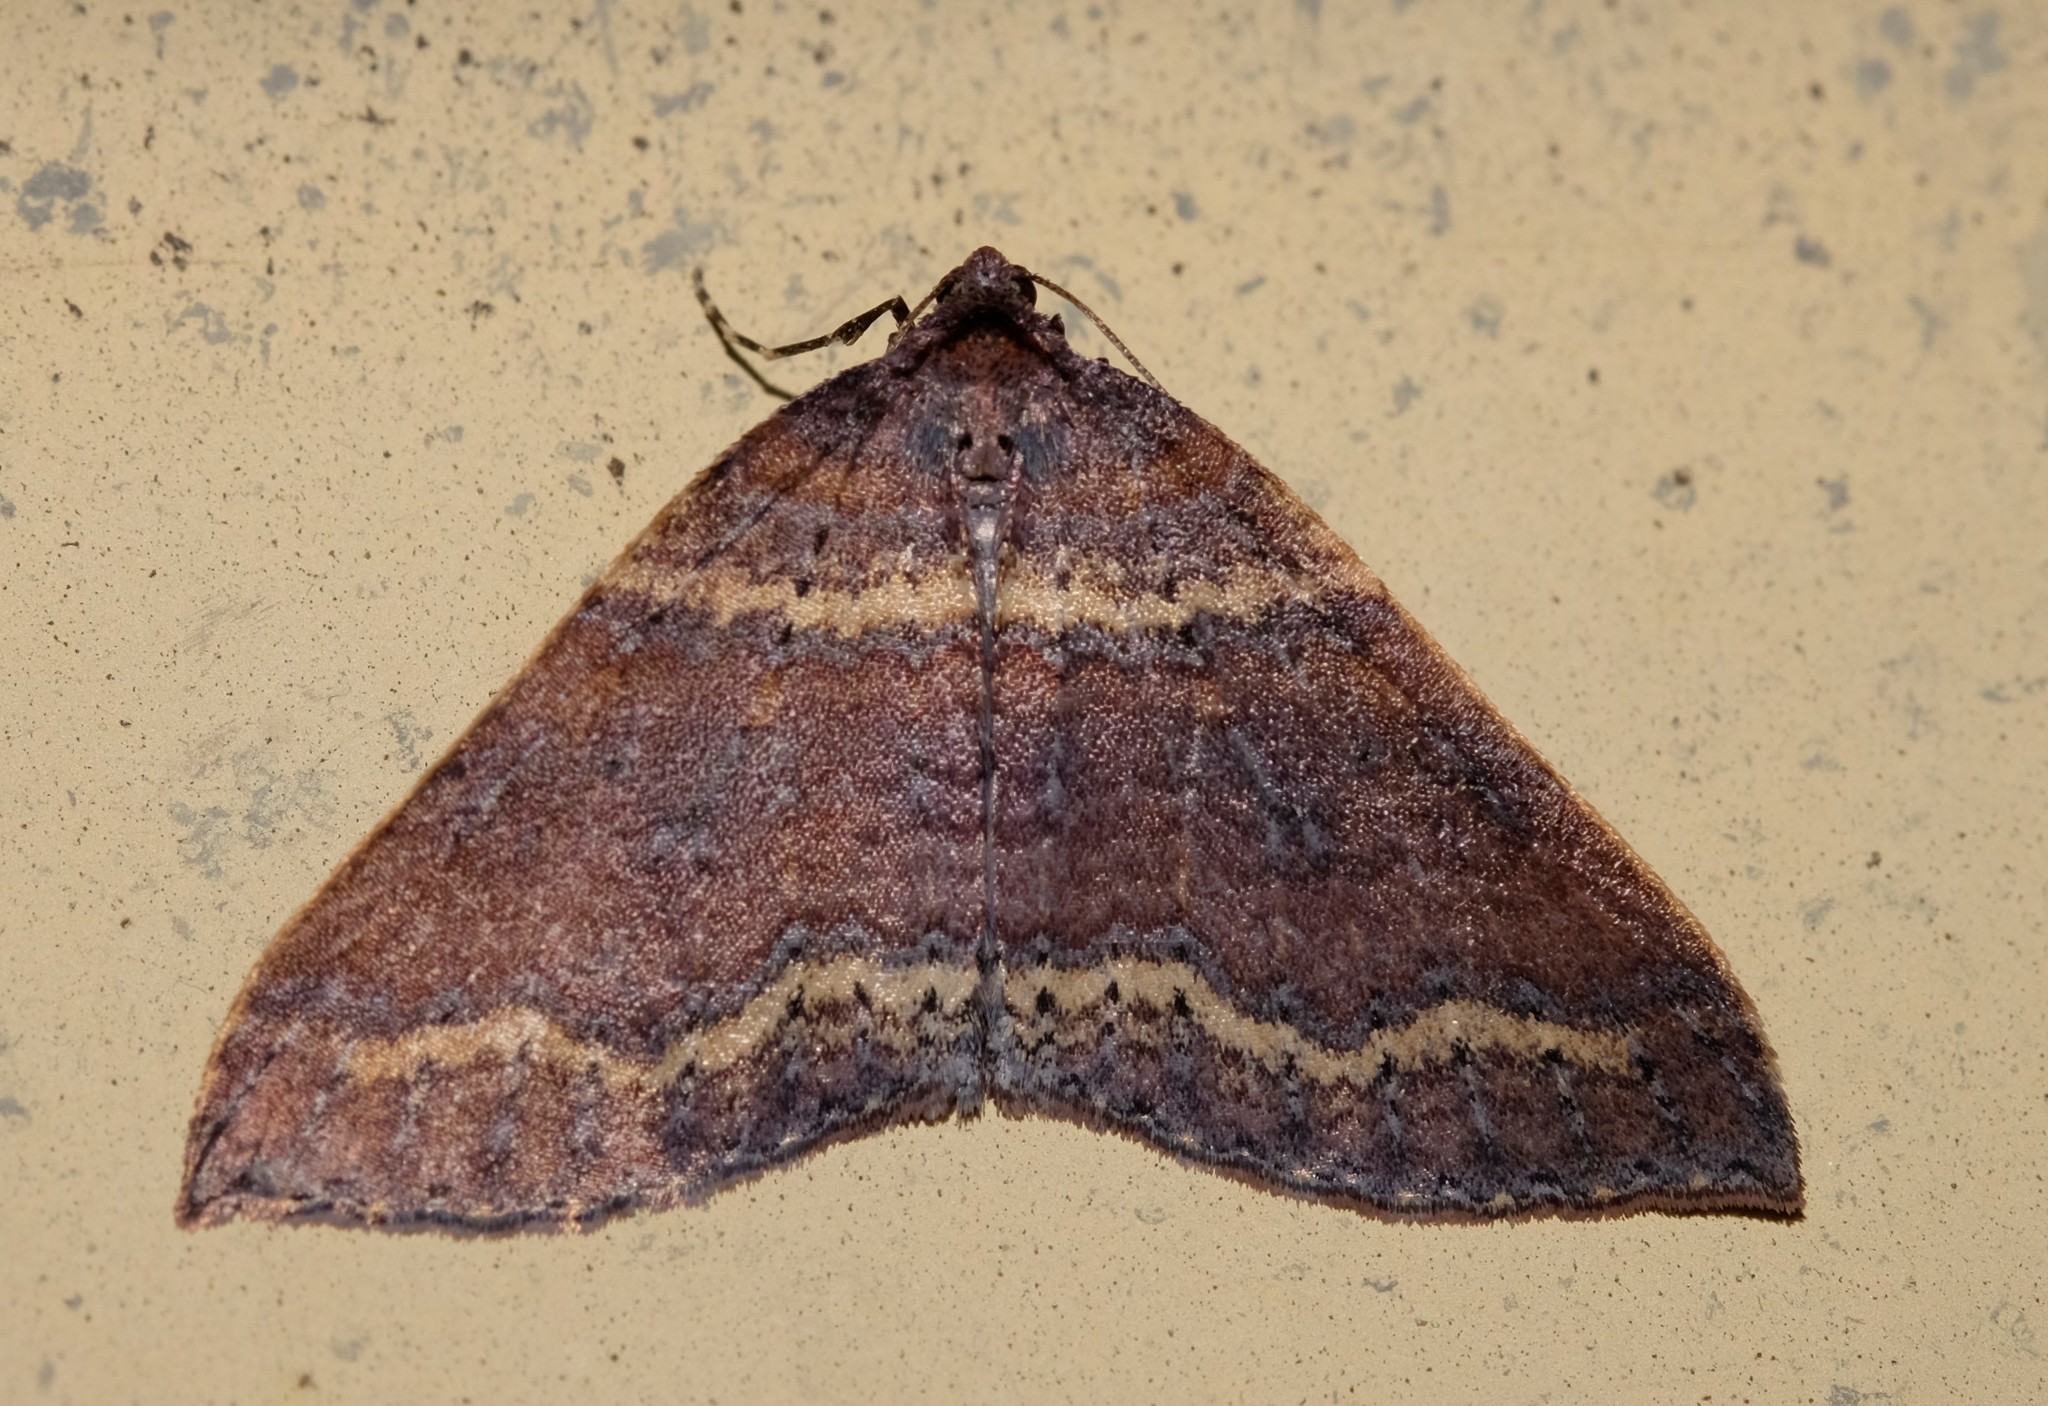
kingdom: Animalia
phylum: Arthropoda
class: Insecta
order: Lepidoptera
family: Geometridae
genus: Larentia
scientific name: Larentia apotoma
